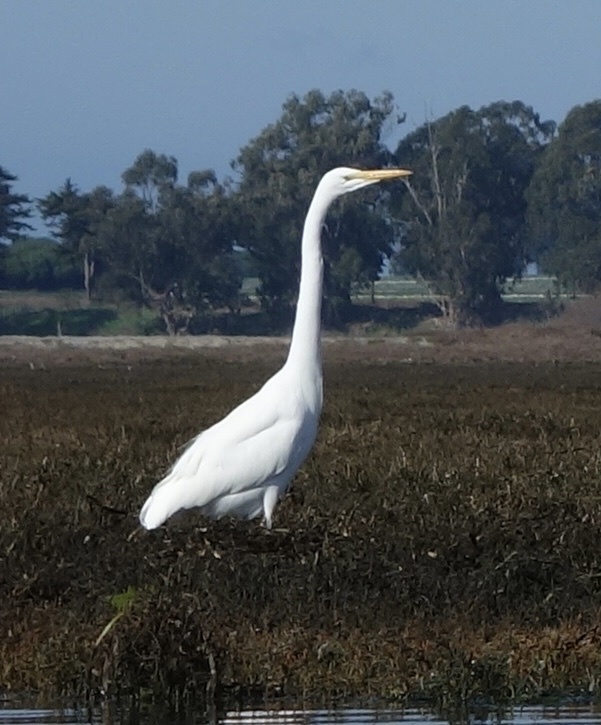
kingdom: Animalia
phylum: Chordata
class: Aves
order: Pelecaniformes
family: Ardeidae
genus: Ardea
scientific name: Ardea alba
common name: Great egret
